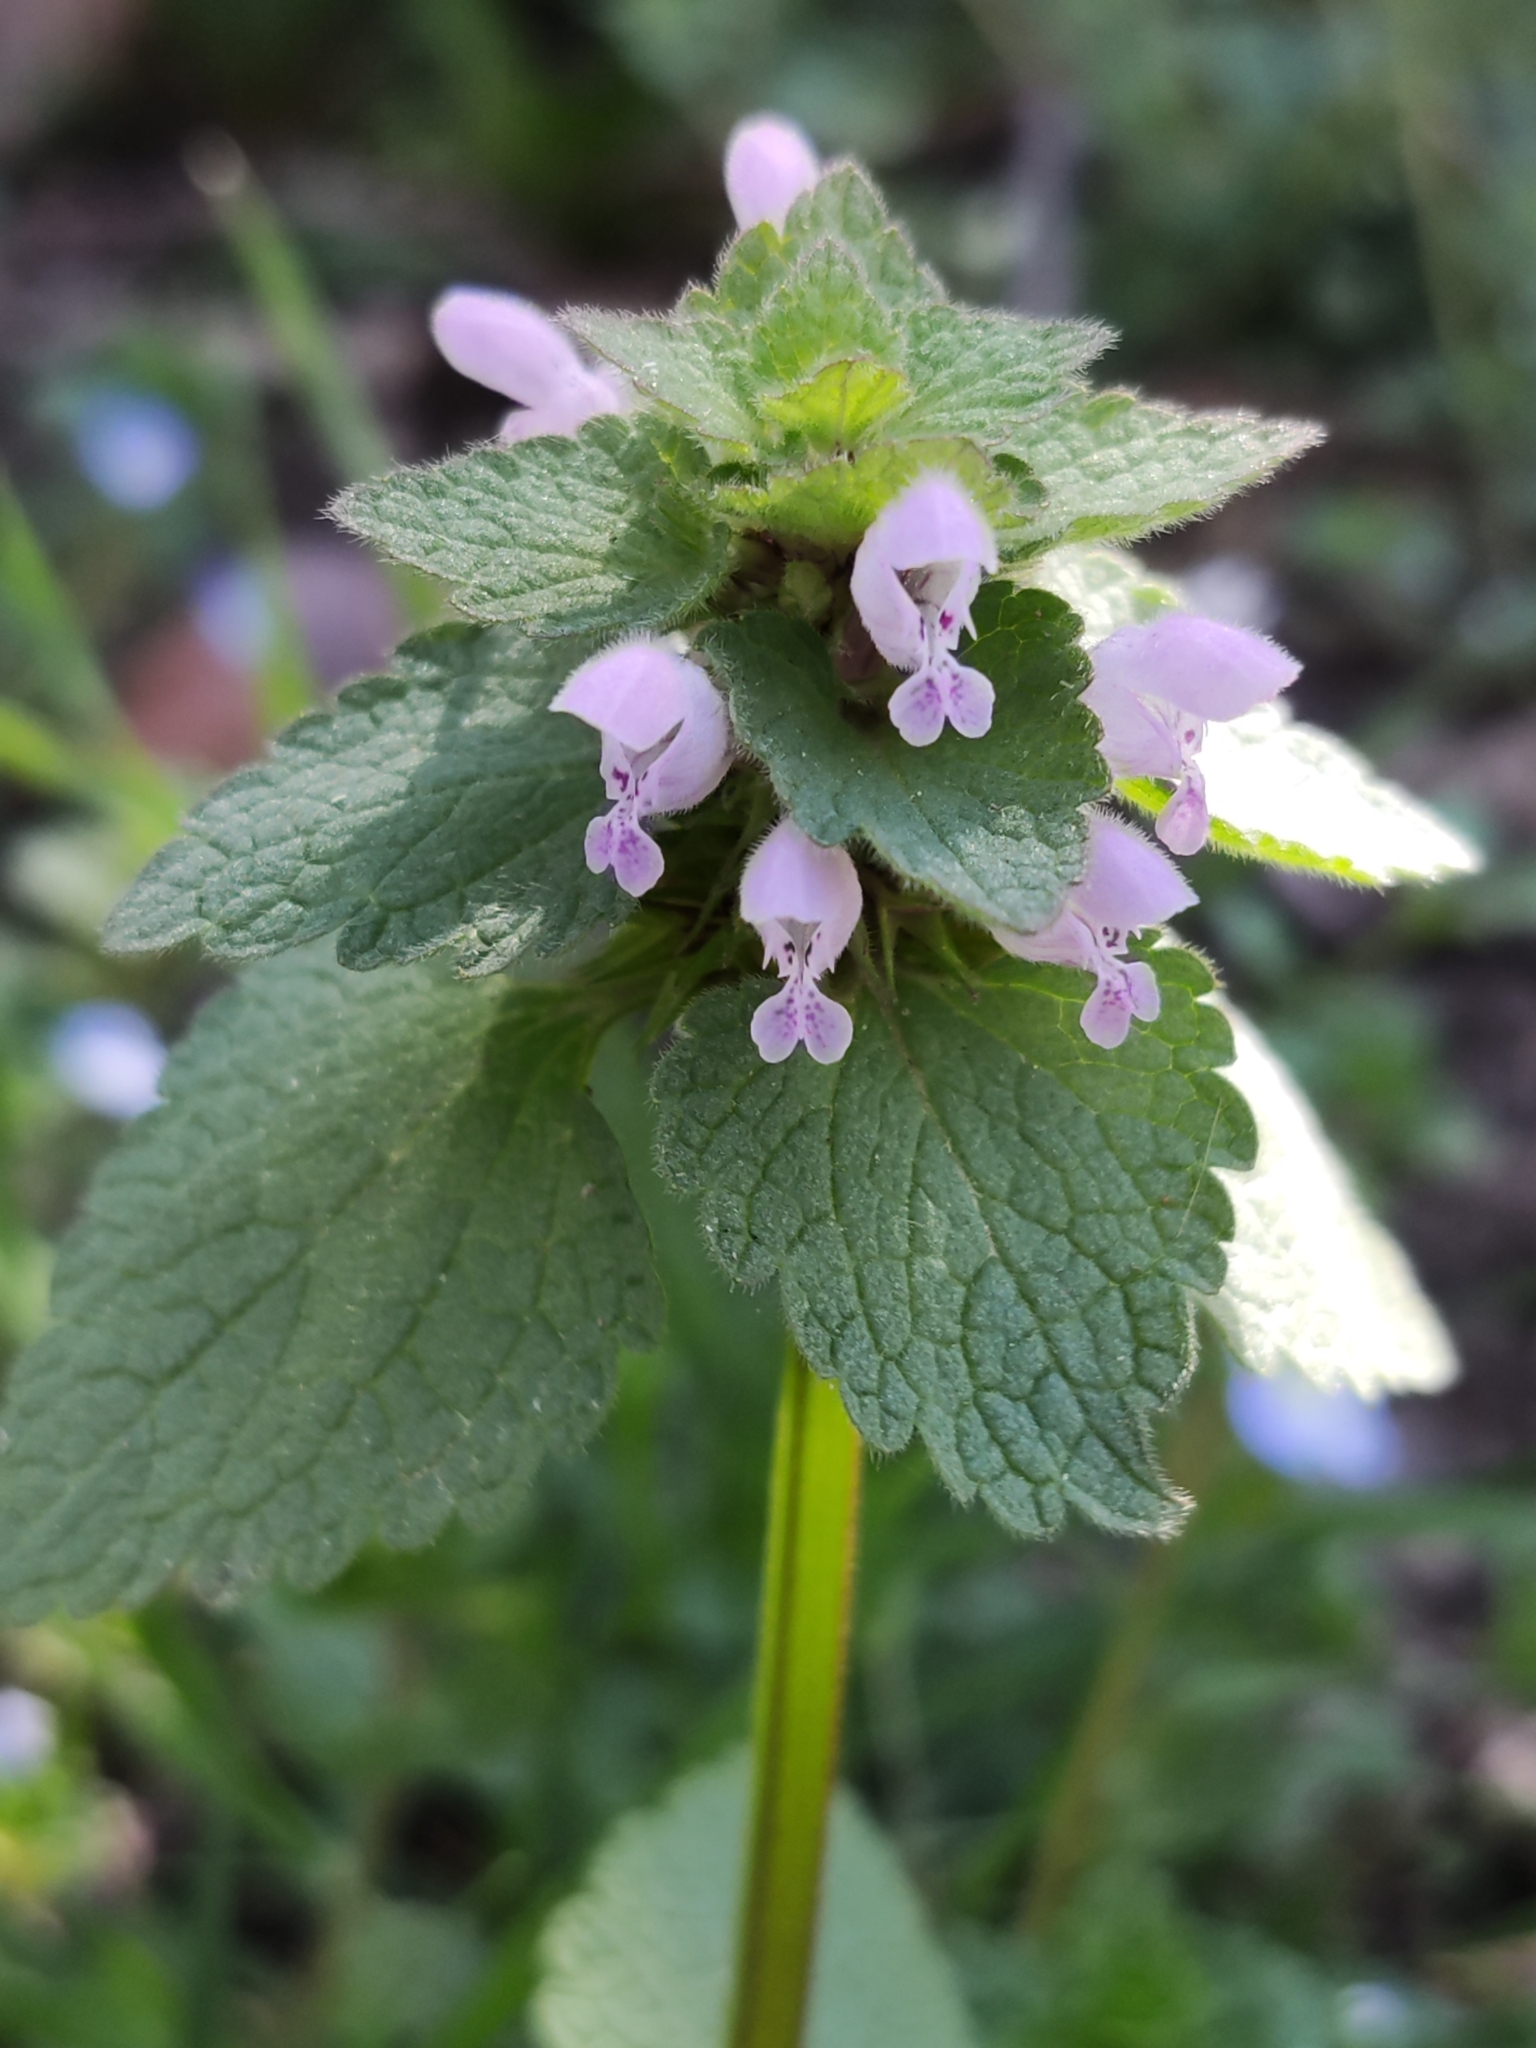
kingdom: Plantae
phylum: Tracheophyta
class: Magnoliopsida
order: Lamiales
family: Lamiaceae
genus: Lamium
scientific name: Lamium purpureum
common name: Red dead-nettle
